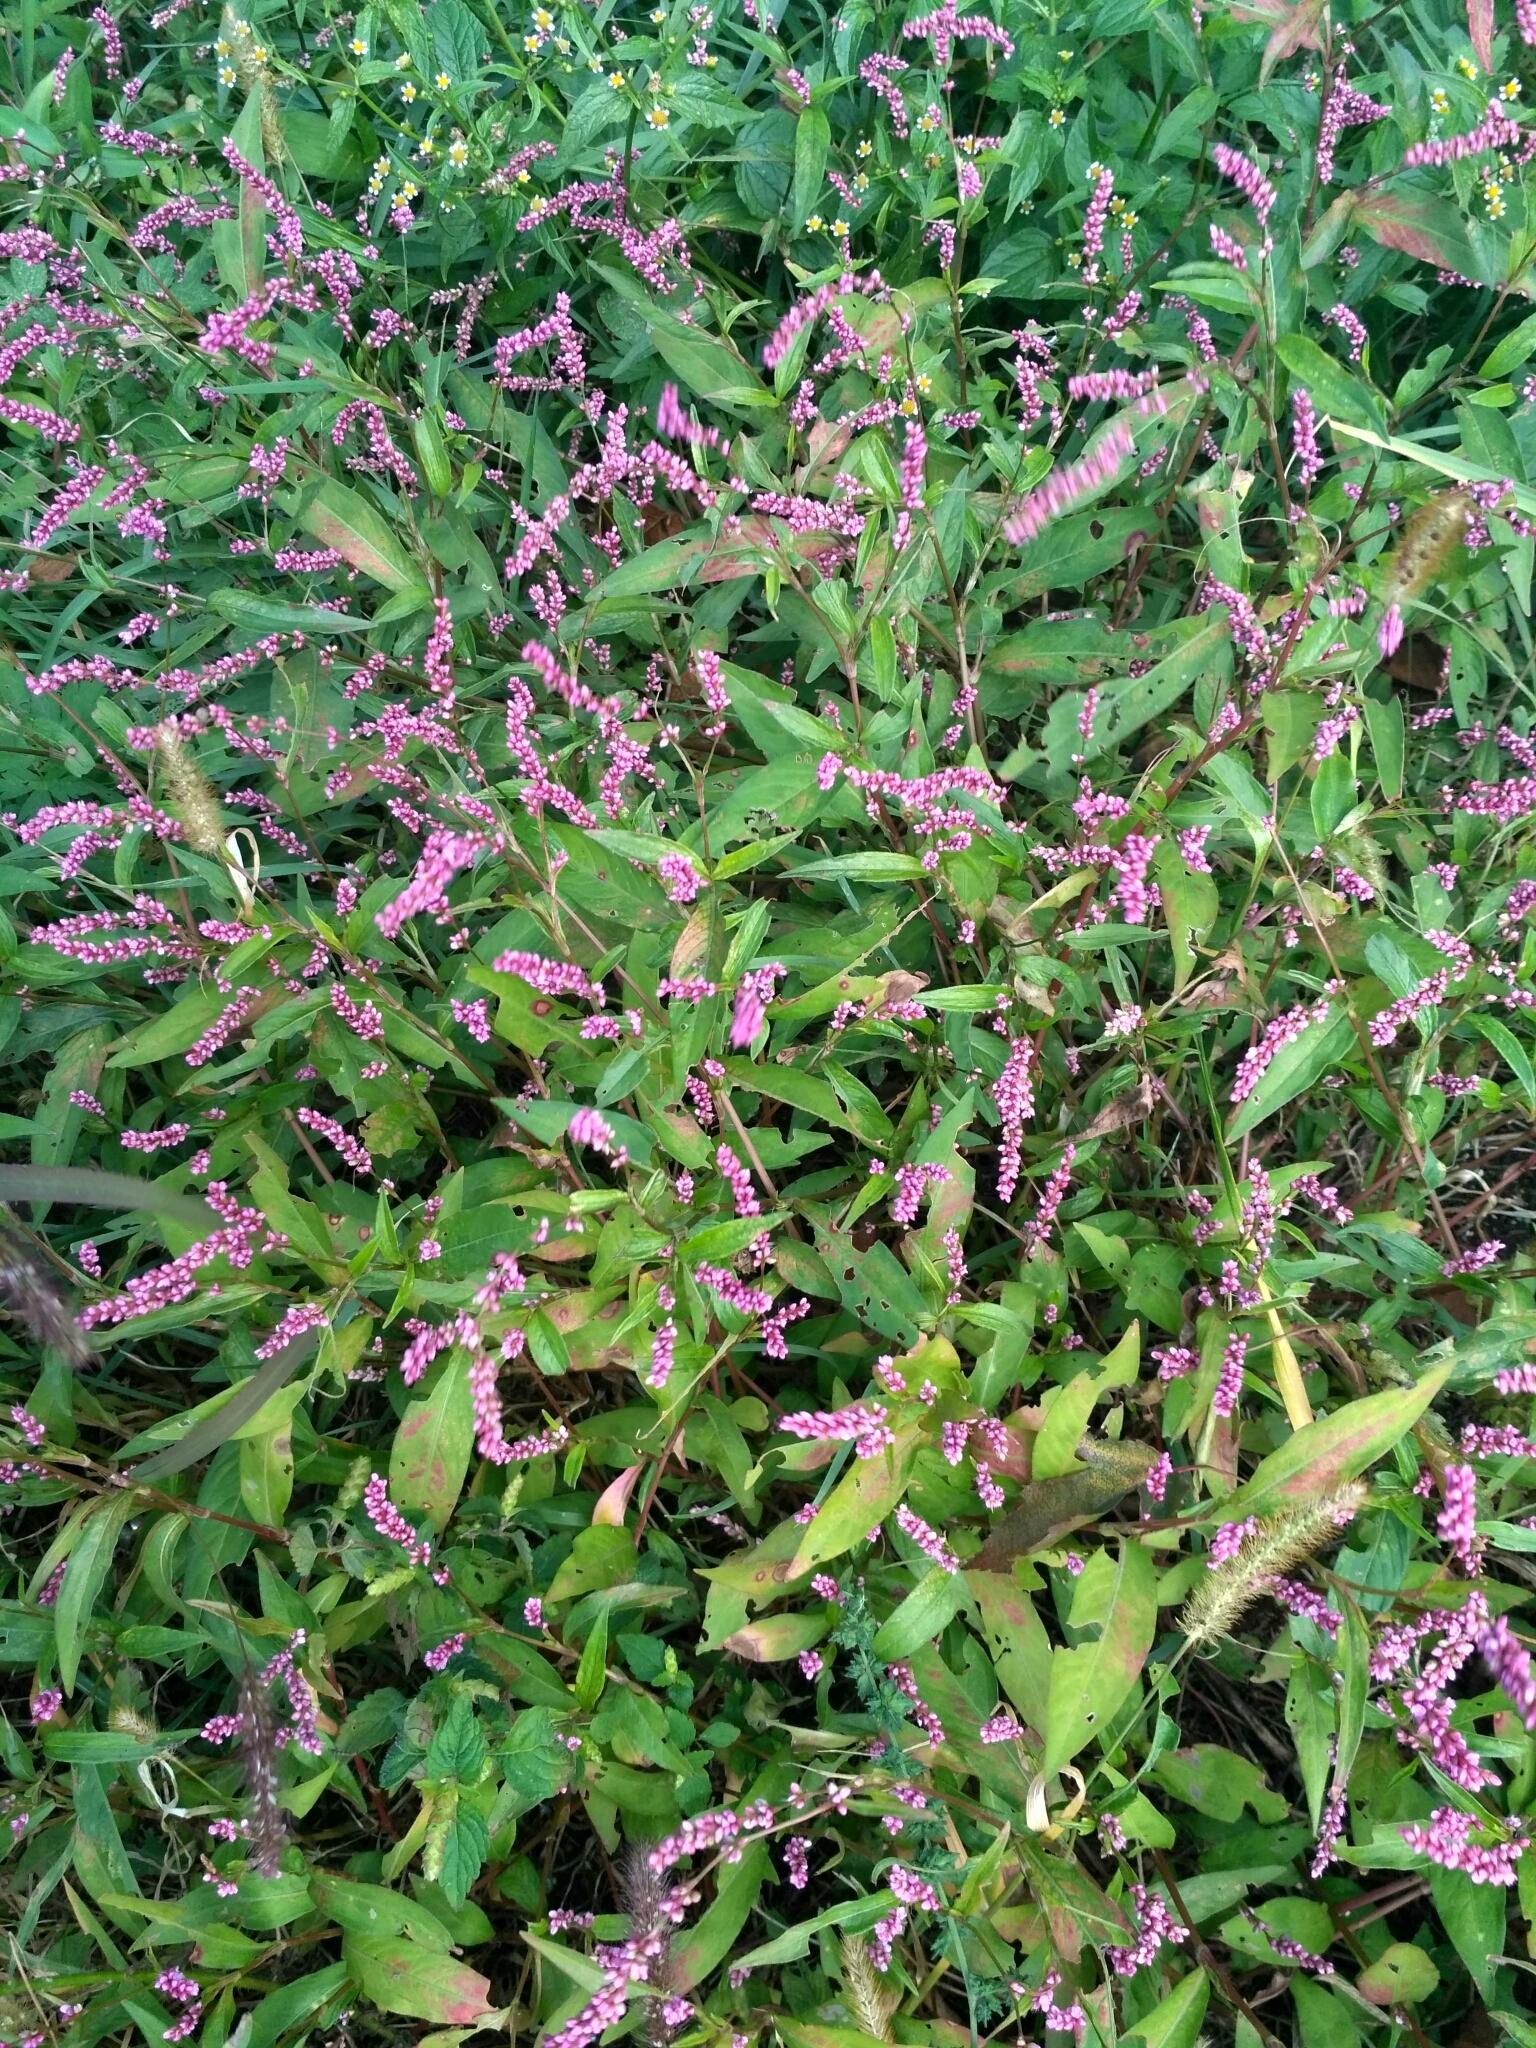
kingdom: Plantae
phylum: Tracheophyta
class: Magnoliopsida
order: Caryophyllales
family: Polygonaceae
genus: Persicaria
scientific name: Persicaria longiseta
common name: Bristly lady's-thumb
